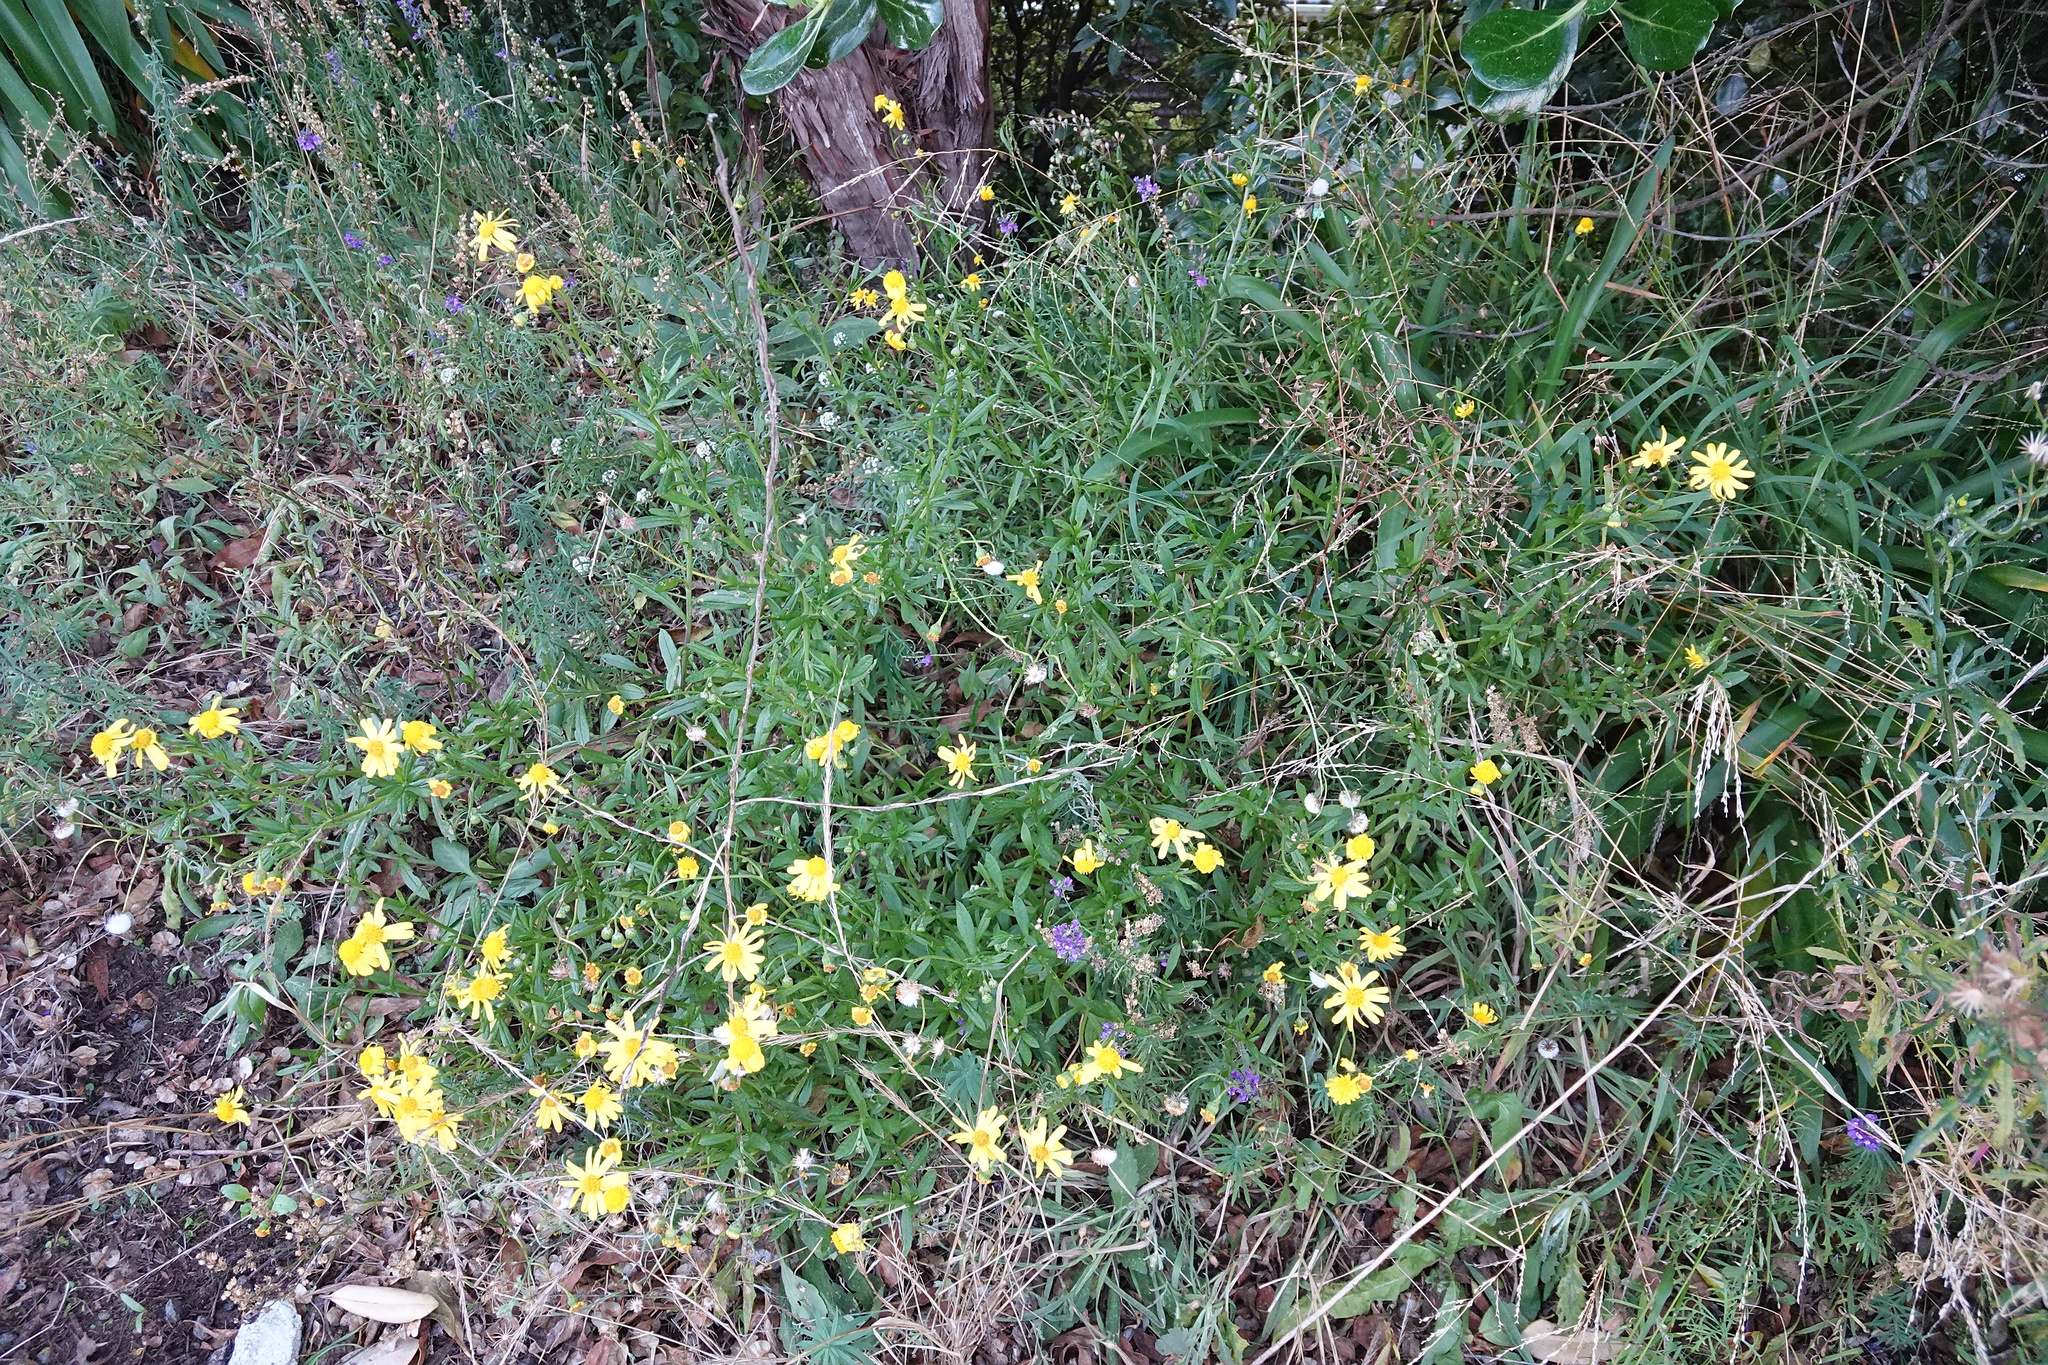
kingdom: Plantae
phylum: Tracheophyta
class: Magnoliopsida
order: Asterales
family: Asteraceae
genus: Senecio
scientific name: Senecio skirrhodon
